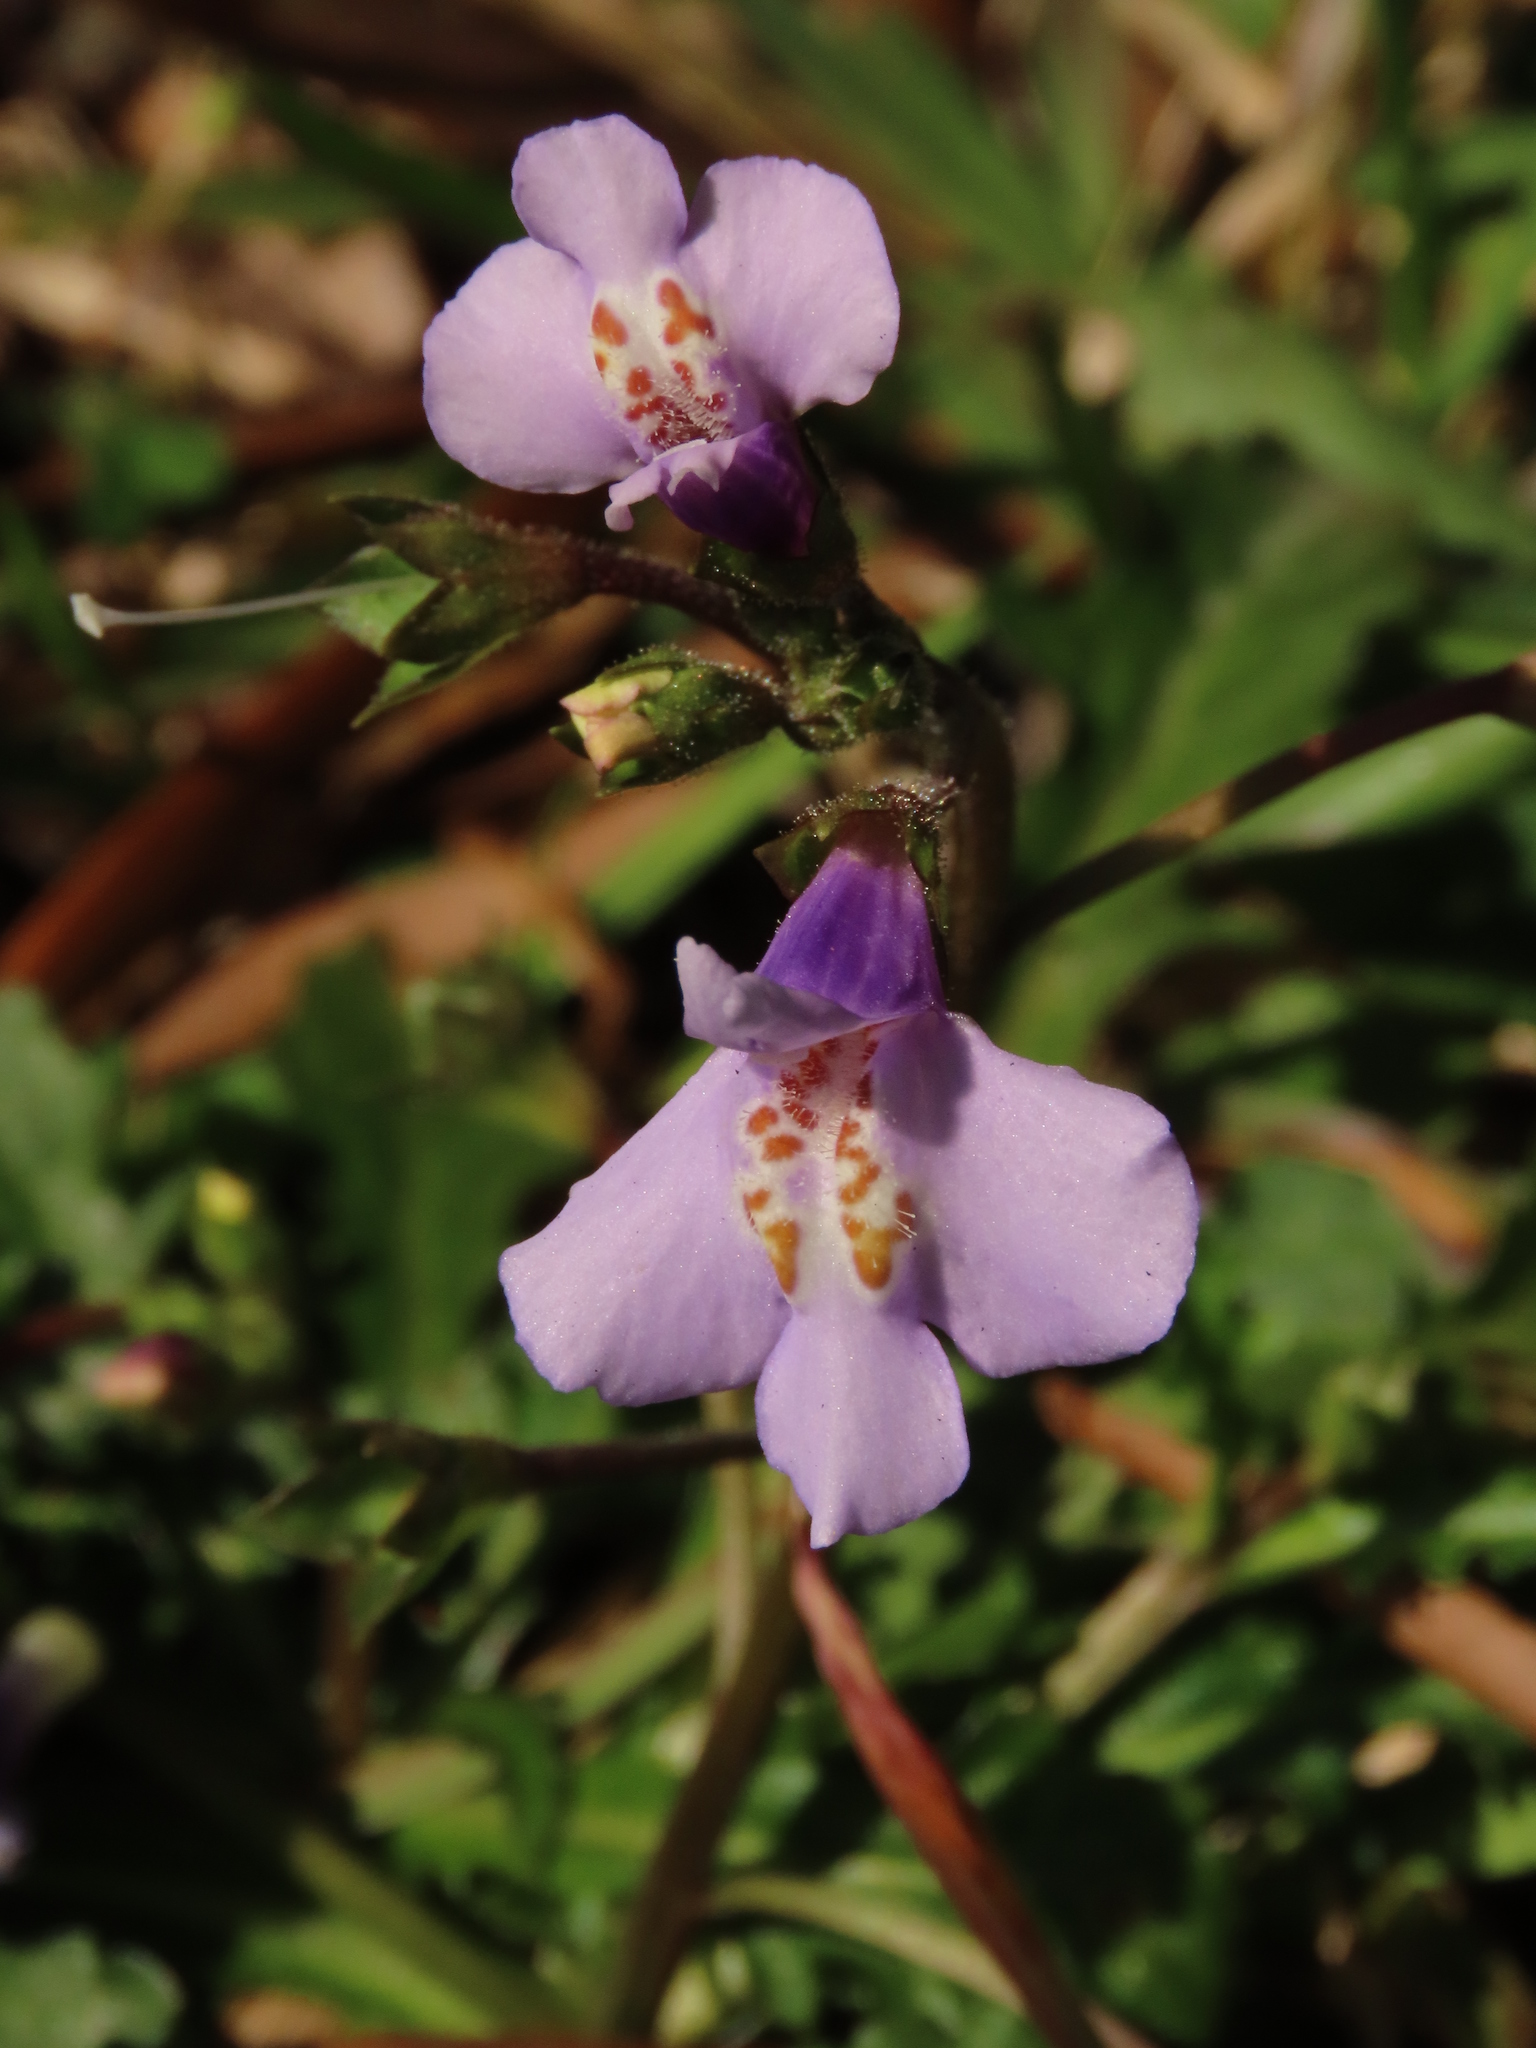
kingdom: Plantae
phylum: Tracheophyta
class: Magnoliopsida
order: Lamiales
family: Mazaceae
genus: Mazus
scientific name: Mazus fauriei
